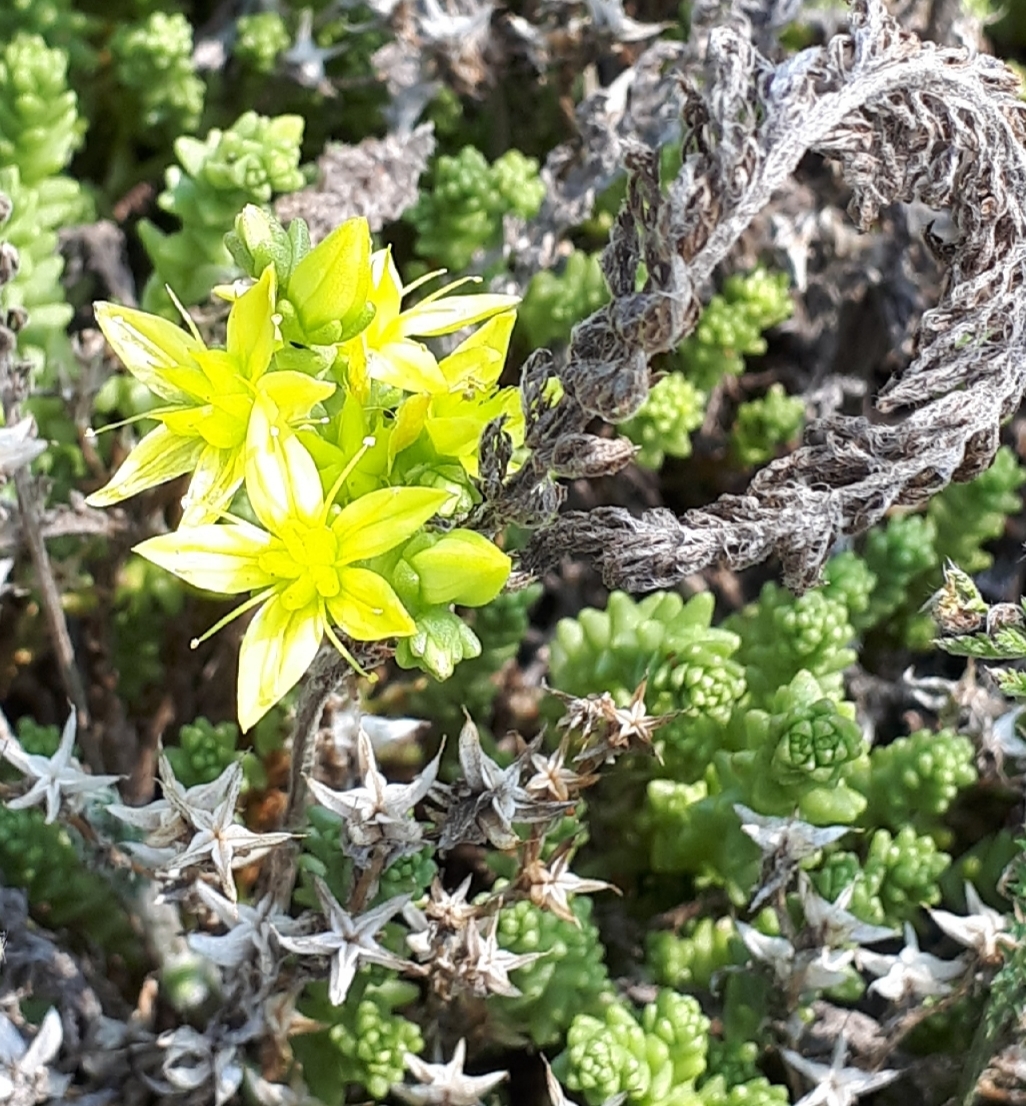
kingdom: Plantae
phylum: Tracheophyta
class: Magnoliopsida
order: Saxifragales
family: Crassulaceae
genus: Sedum
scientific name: Sedum acre
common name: Biting stonecrop
